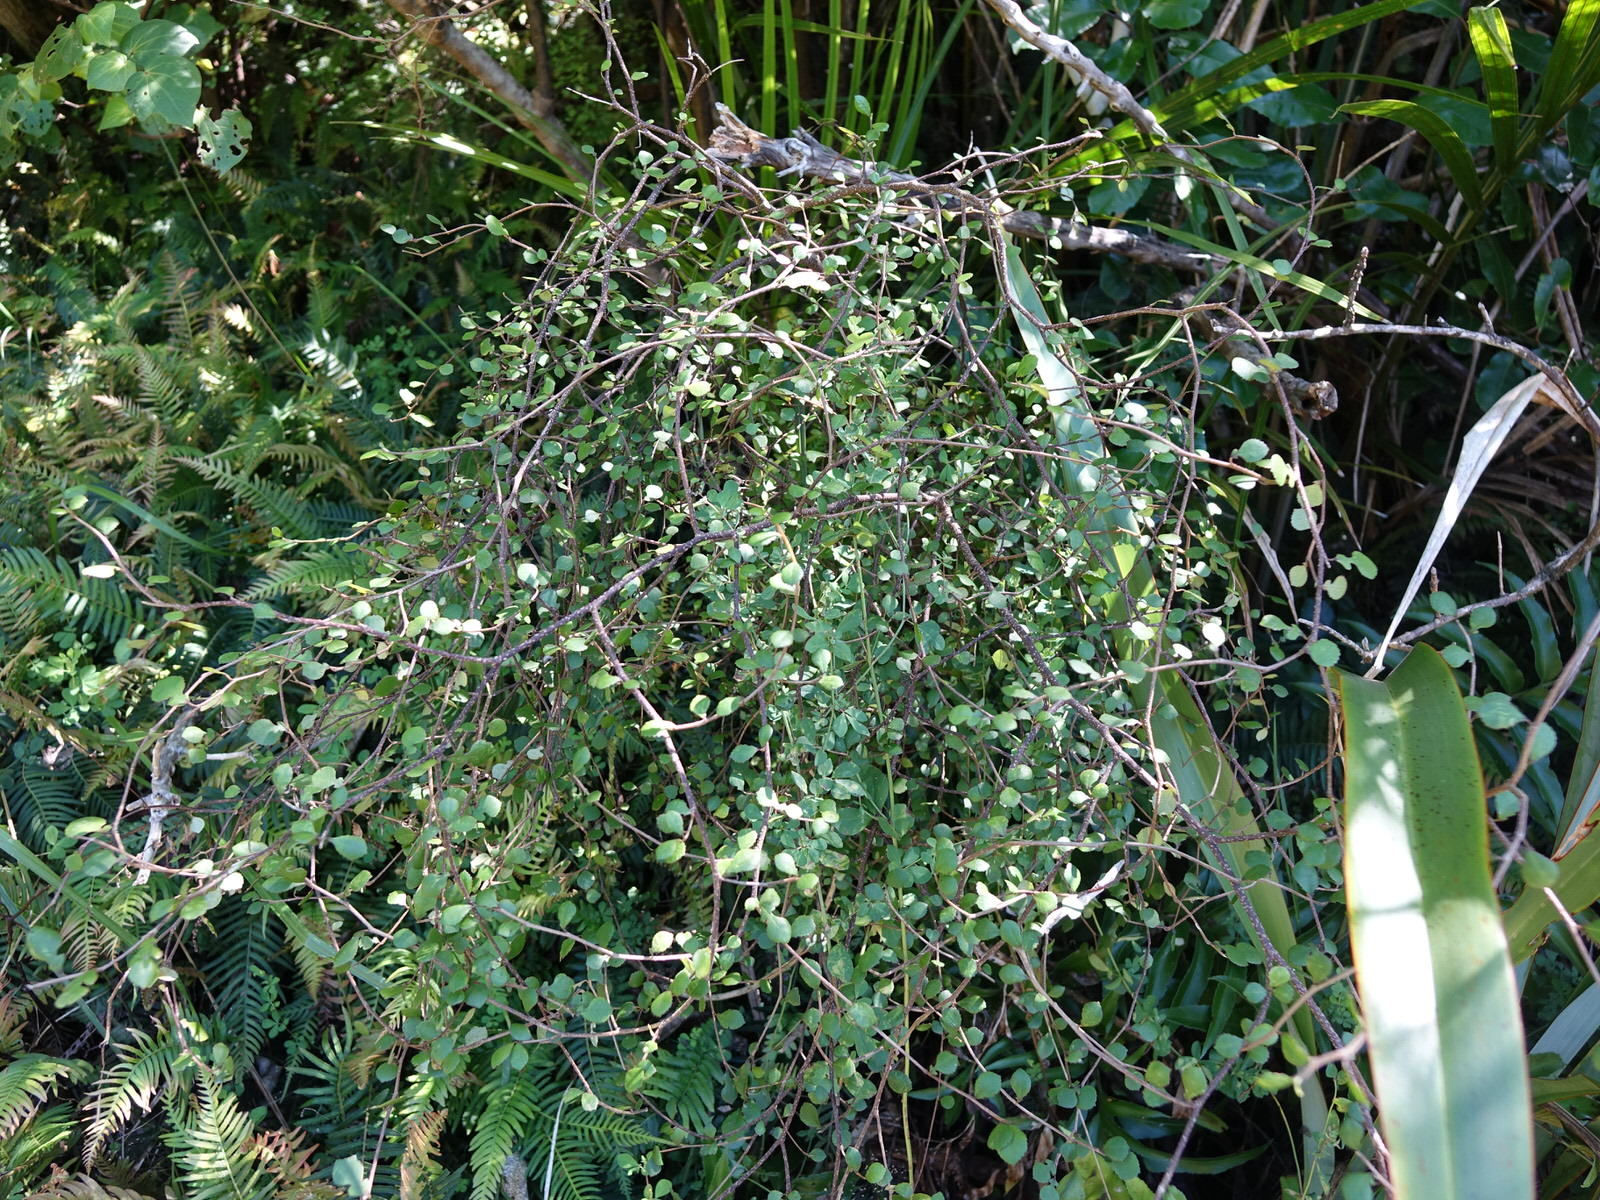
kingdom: Plantae
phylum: Tracheophyta
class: Magnoliopsida
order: Rosales
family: Moraceae
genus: Paratrophis
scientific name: Paratrophis microphylla
